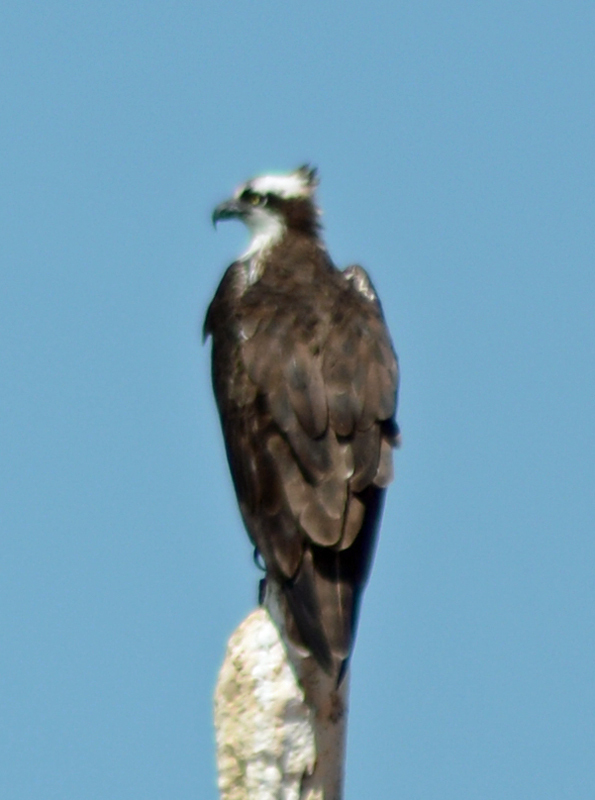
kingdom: Animalia
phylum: Chordata
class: Aves
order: Accipitriformes
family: Pandionidae
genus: Pandion
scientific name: Pandion haliaetus
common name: Osprey
